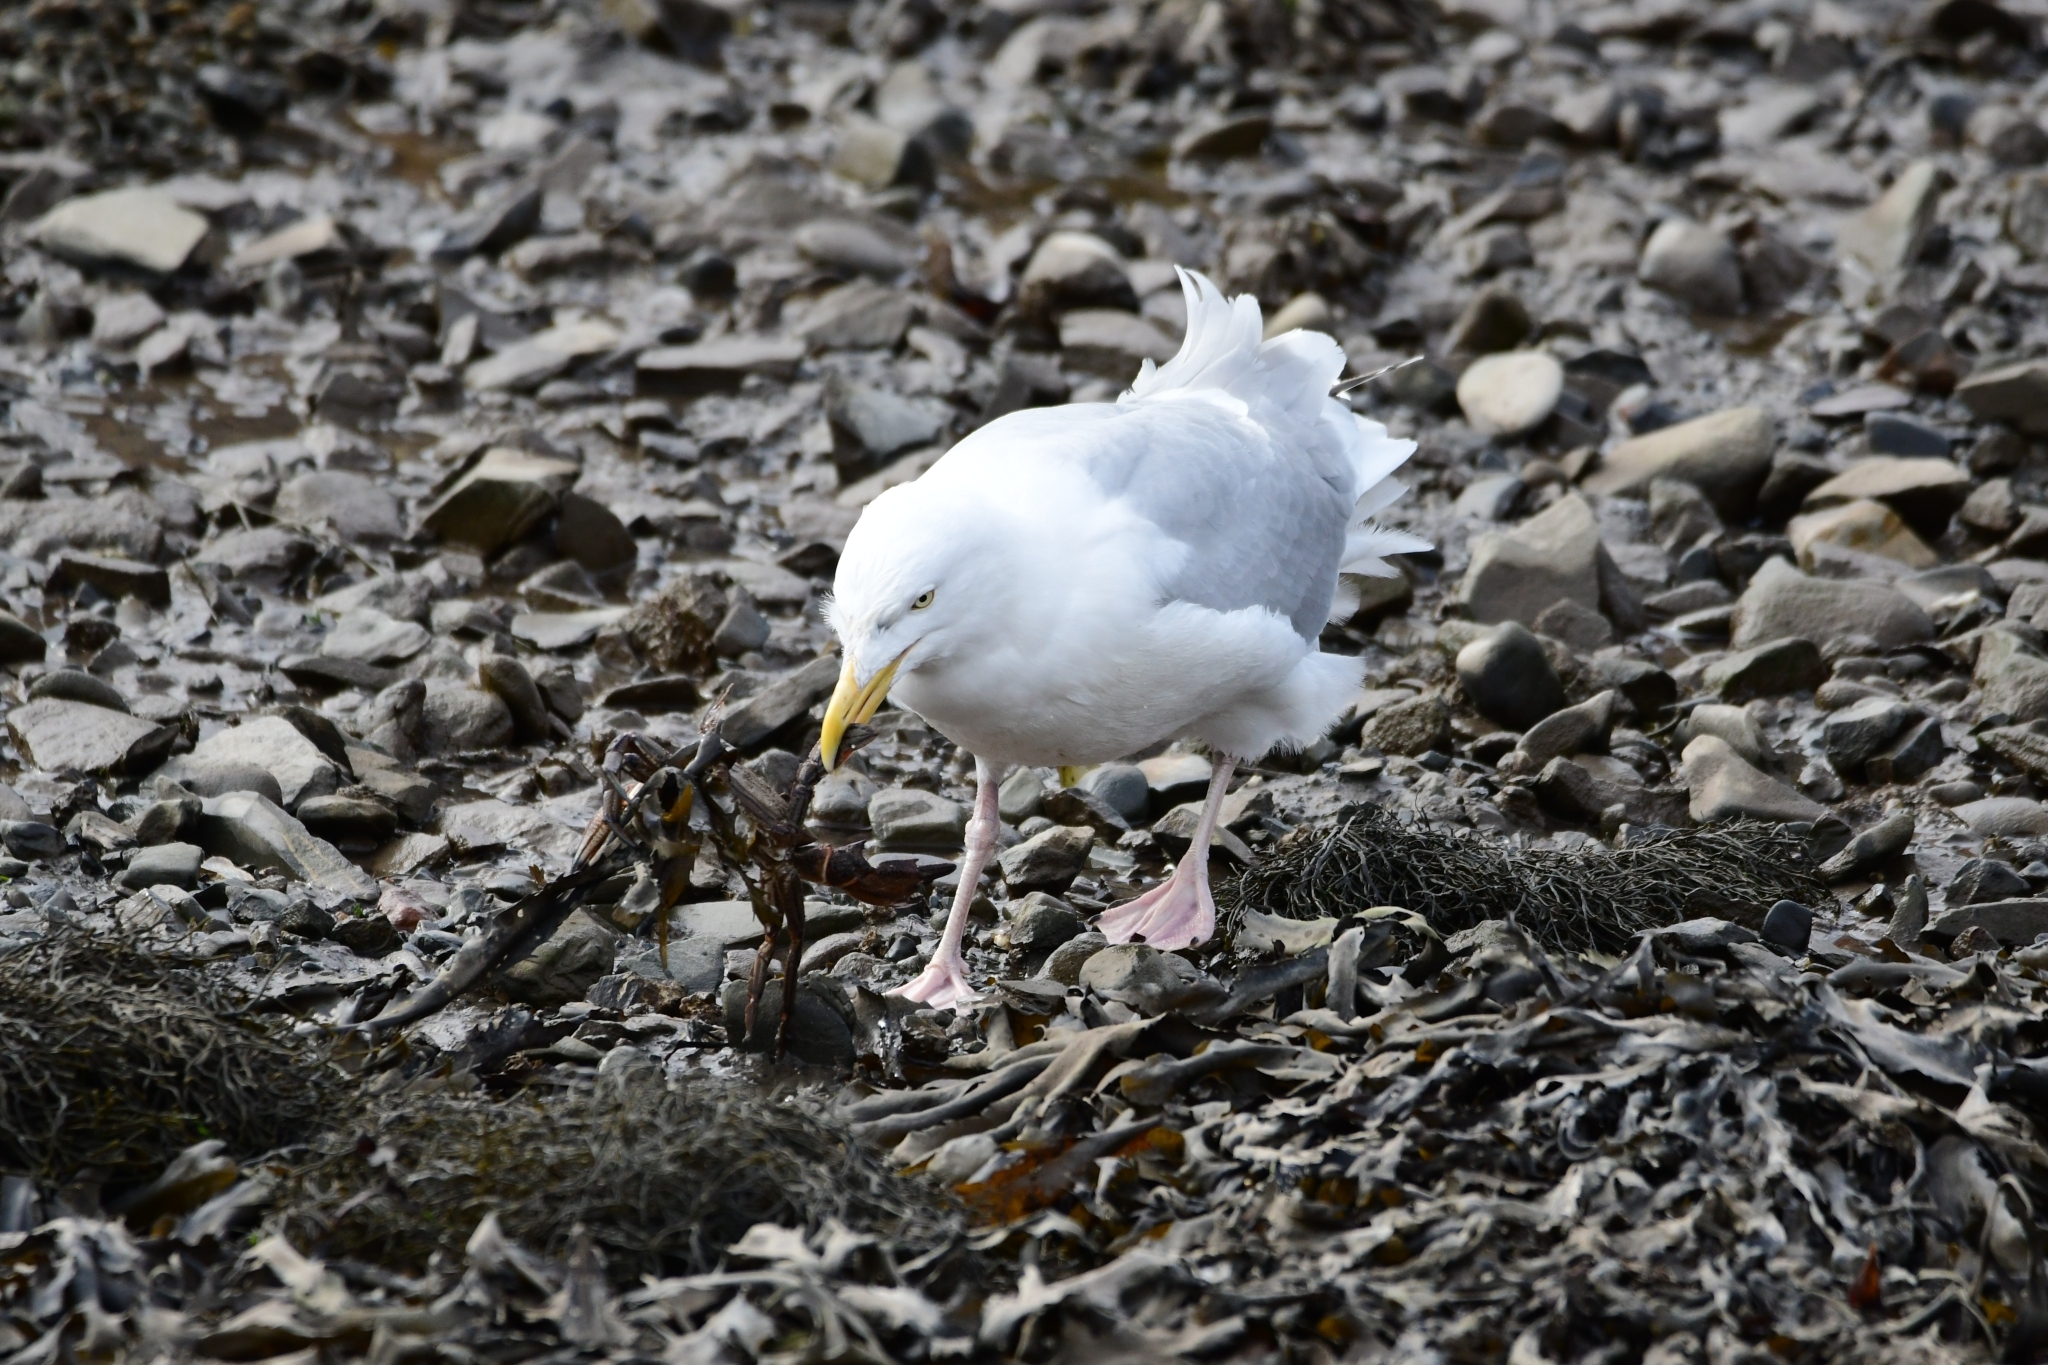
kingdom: Animalia
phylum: Chordata
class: Aves
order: Charadriiformes
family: Laridae
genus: Larus
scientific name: Larus argentatus
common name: Herring gull
